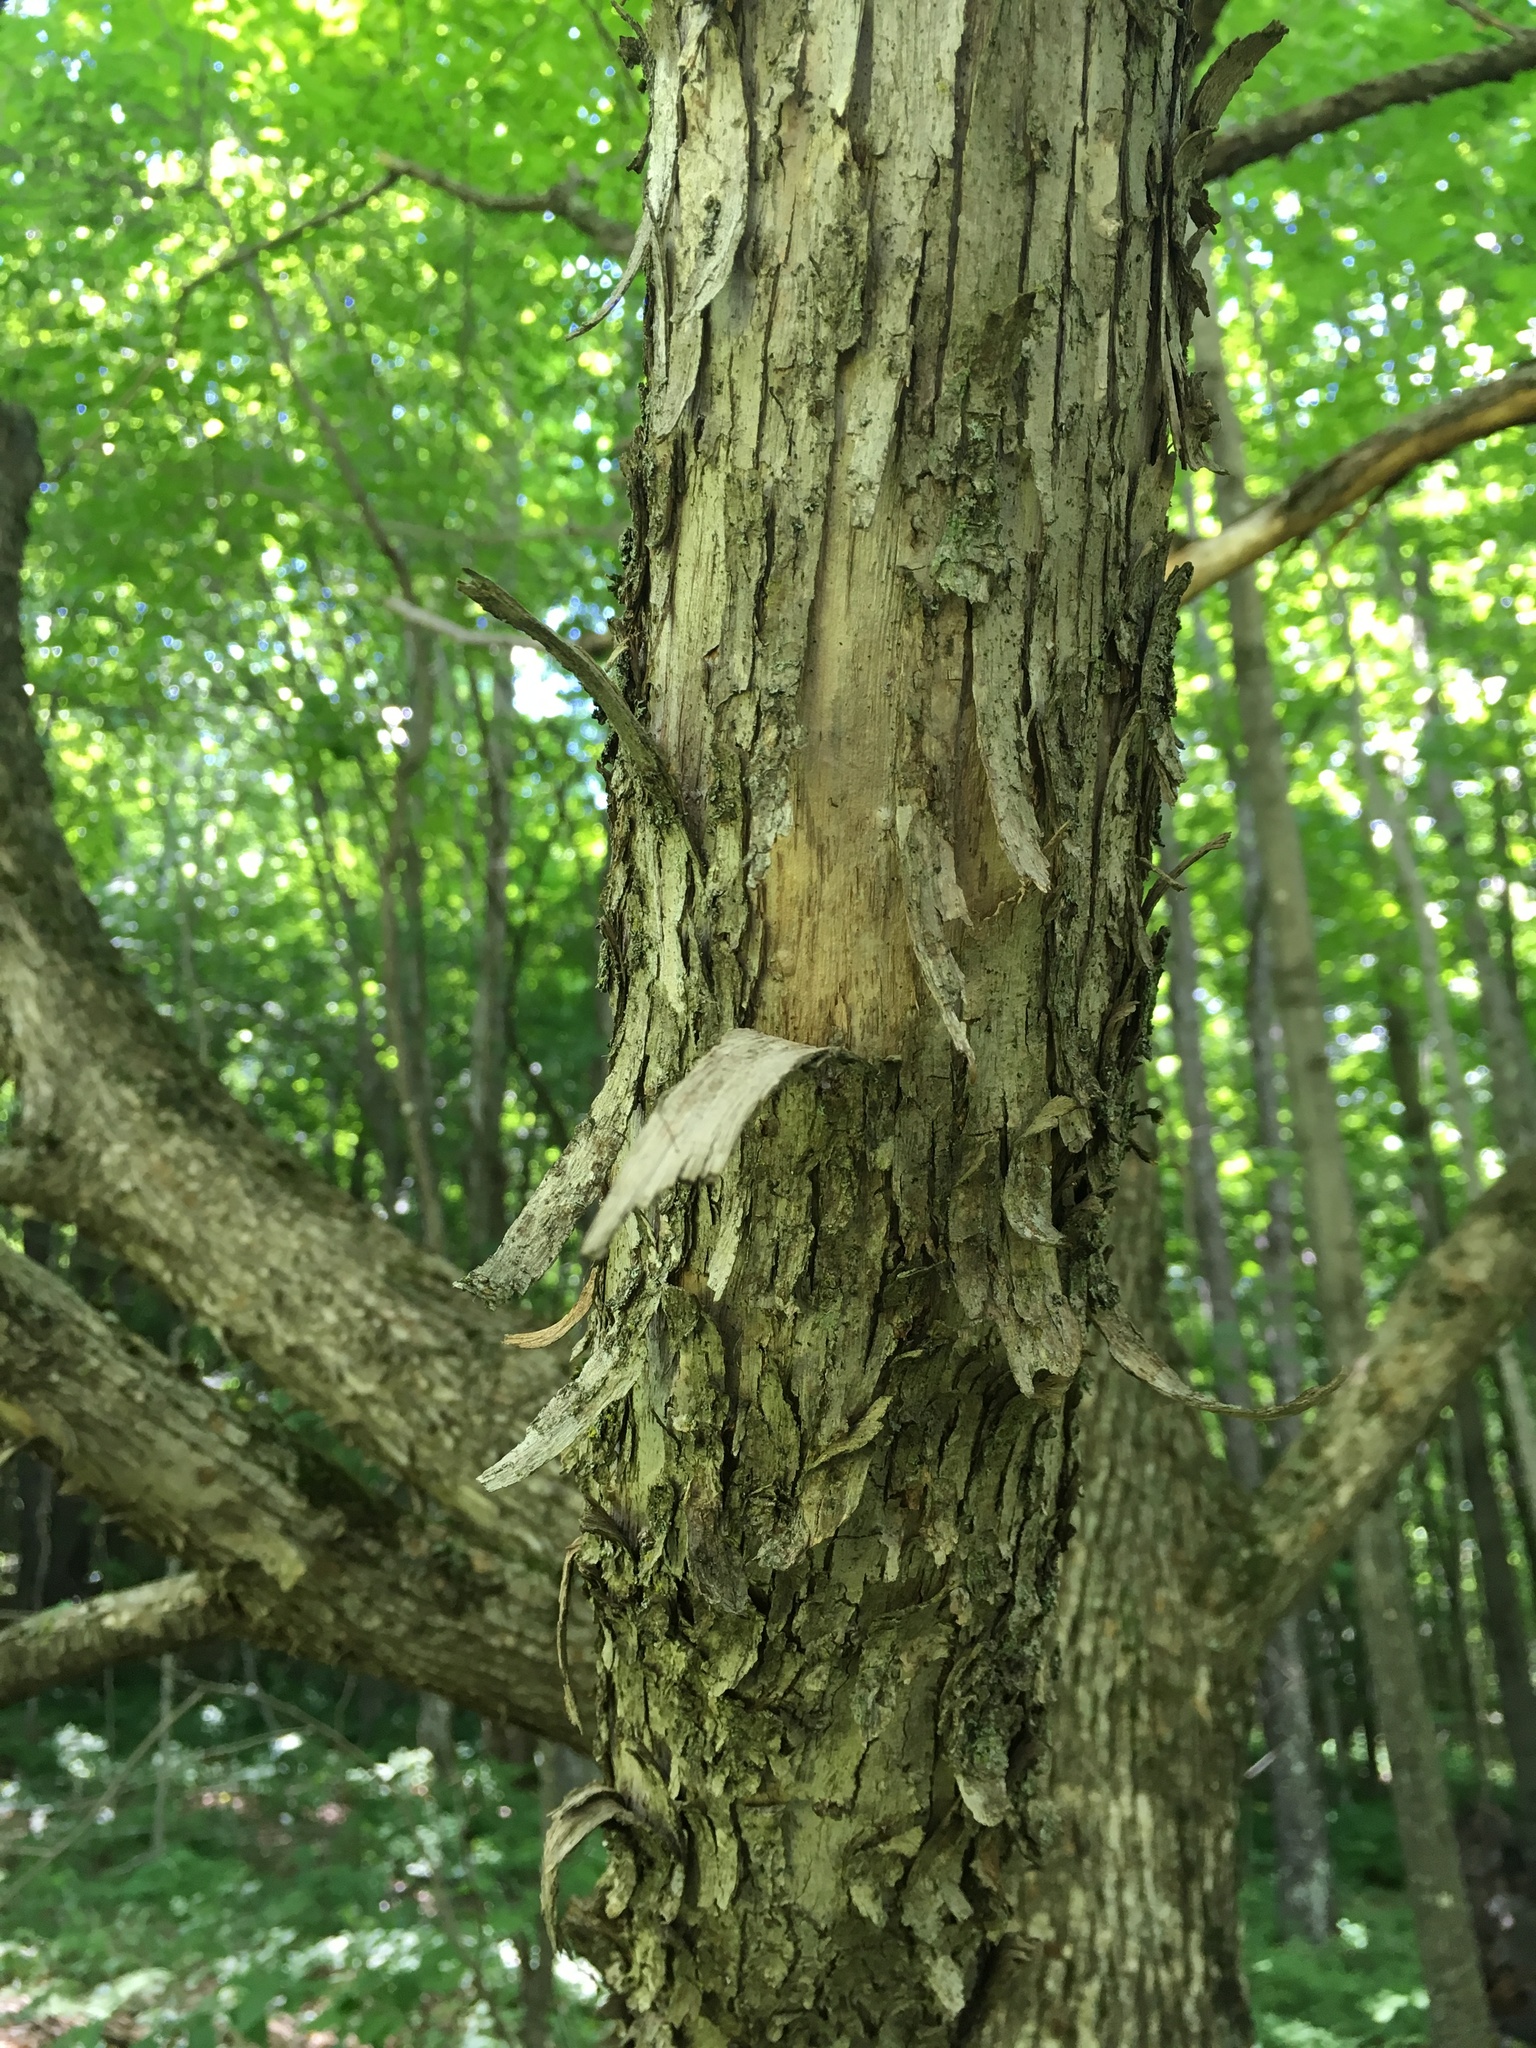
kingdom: Plantae
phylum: Tracheophyta
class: Magnoliopsida
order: Fagales
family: Betulaceae
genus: Ostrya
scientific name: Ostrya virginiana
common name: Ironwood
